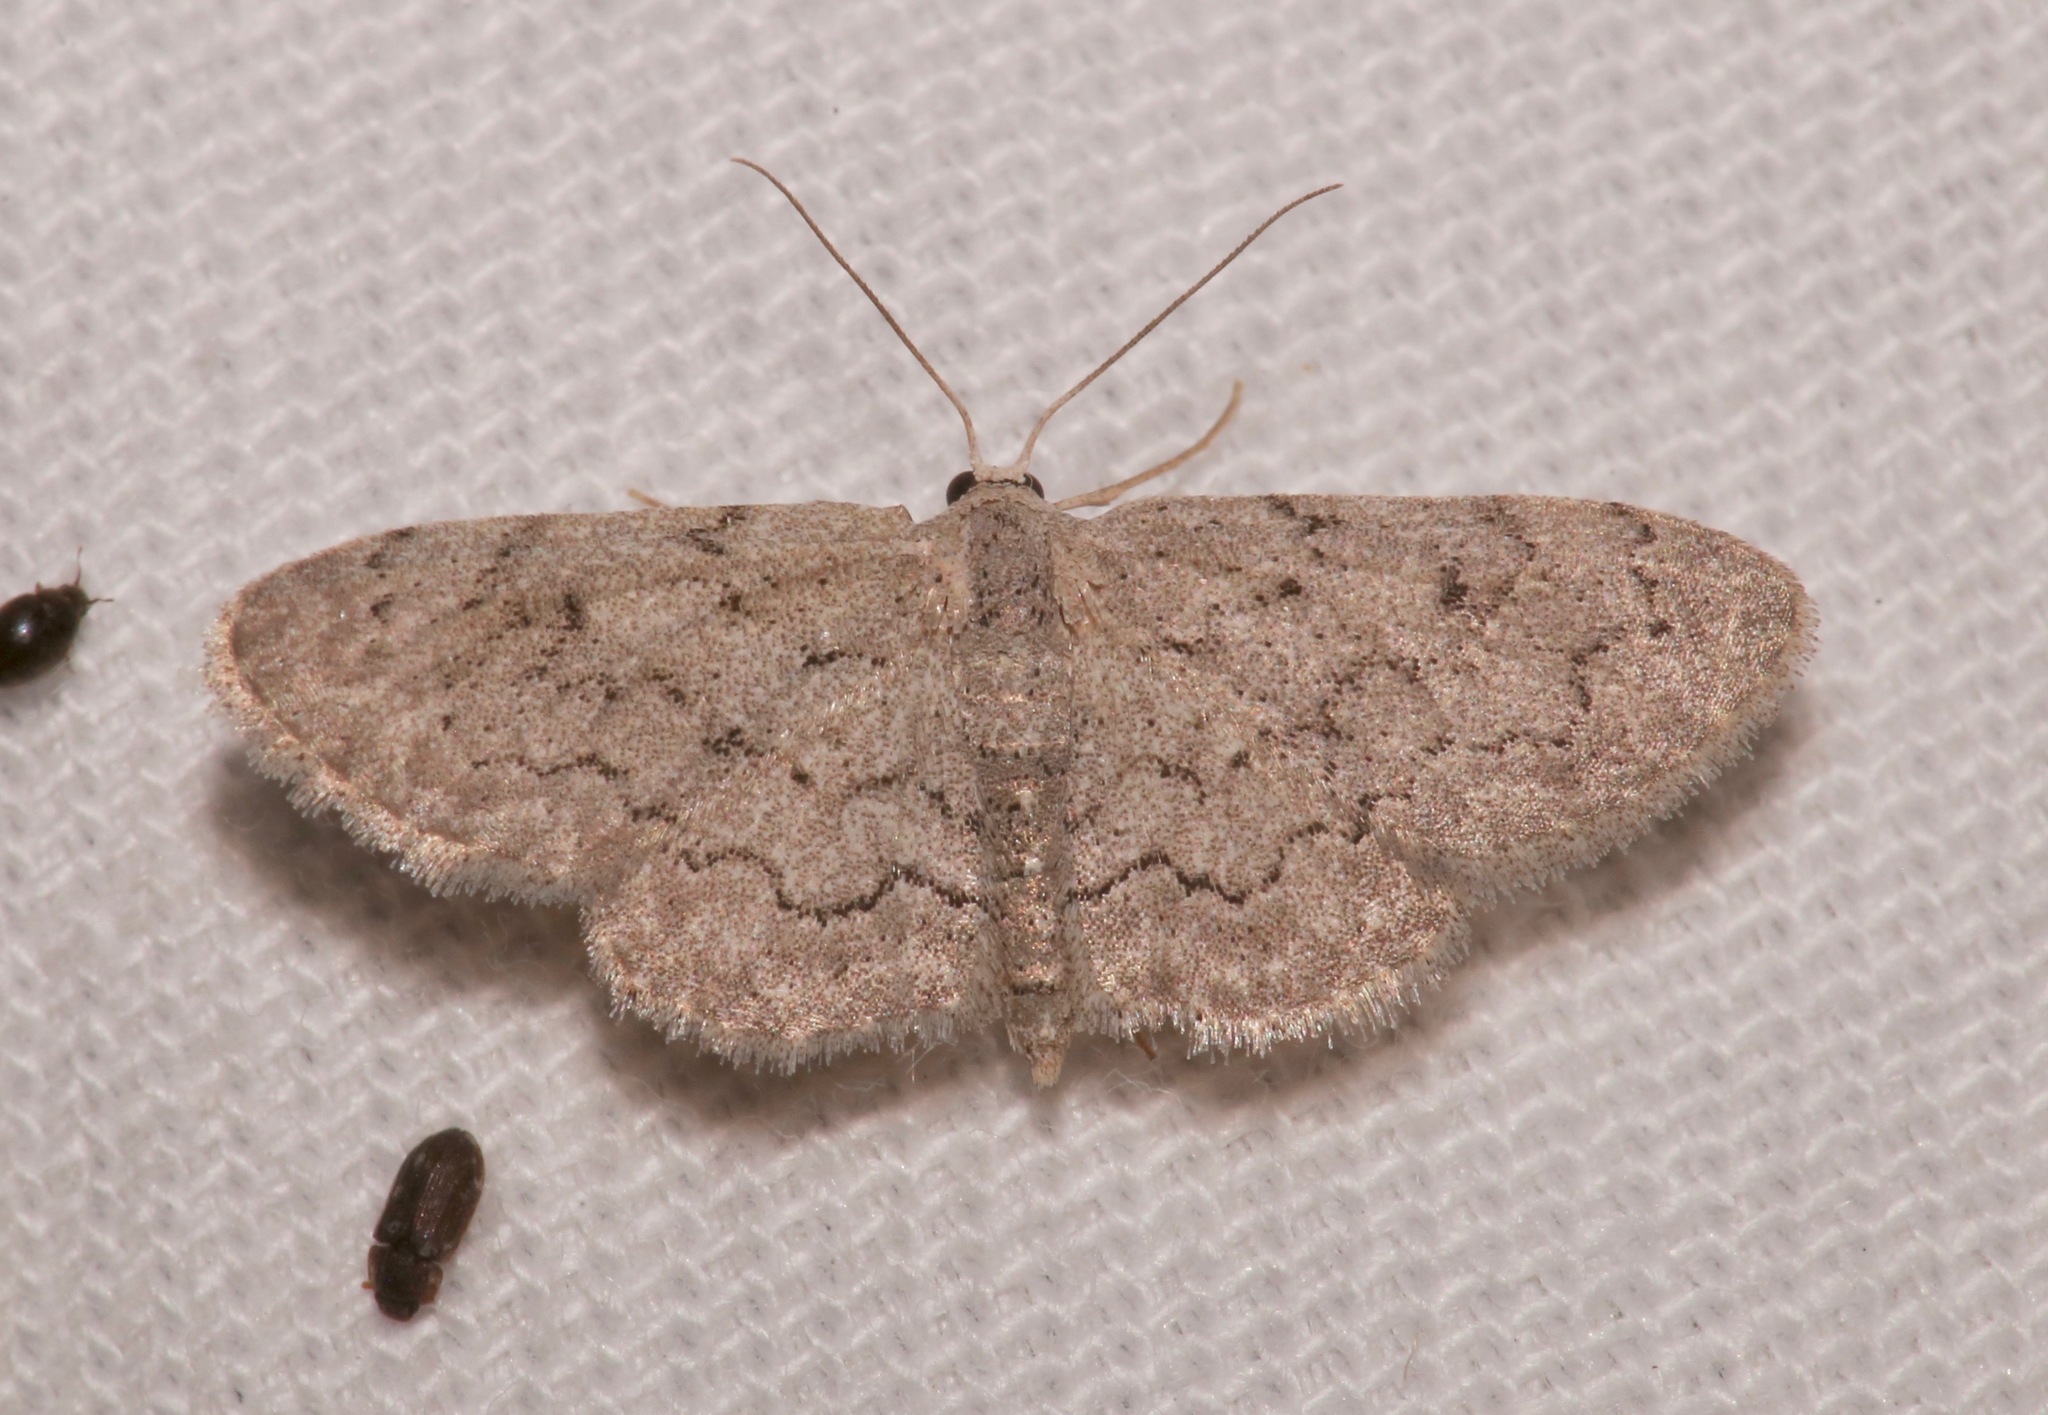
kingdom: Animalia
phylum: Arthropoda
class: Insecta
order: Lepidoptera
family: Geometridae
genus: Idaea
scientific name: Idaea violacearia
